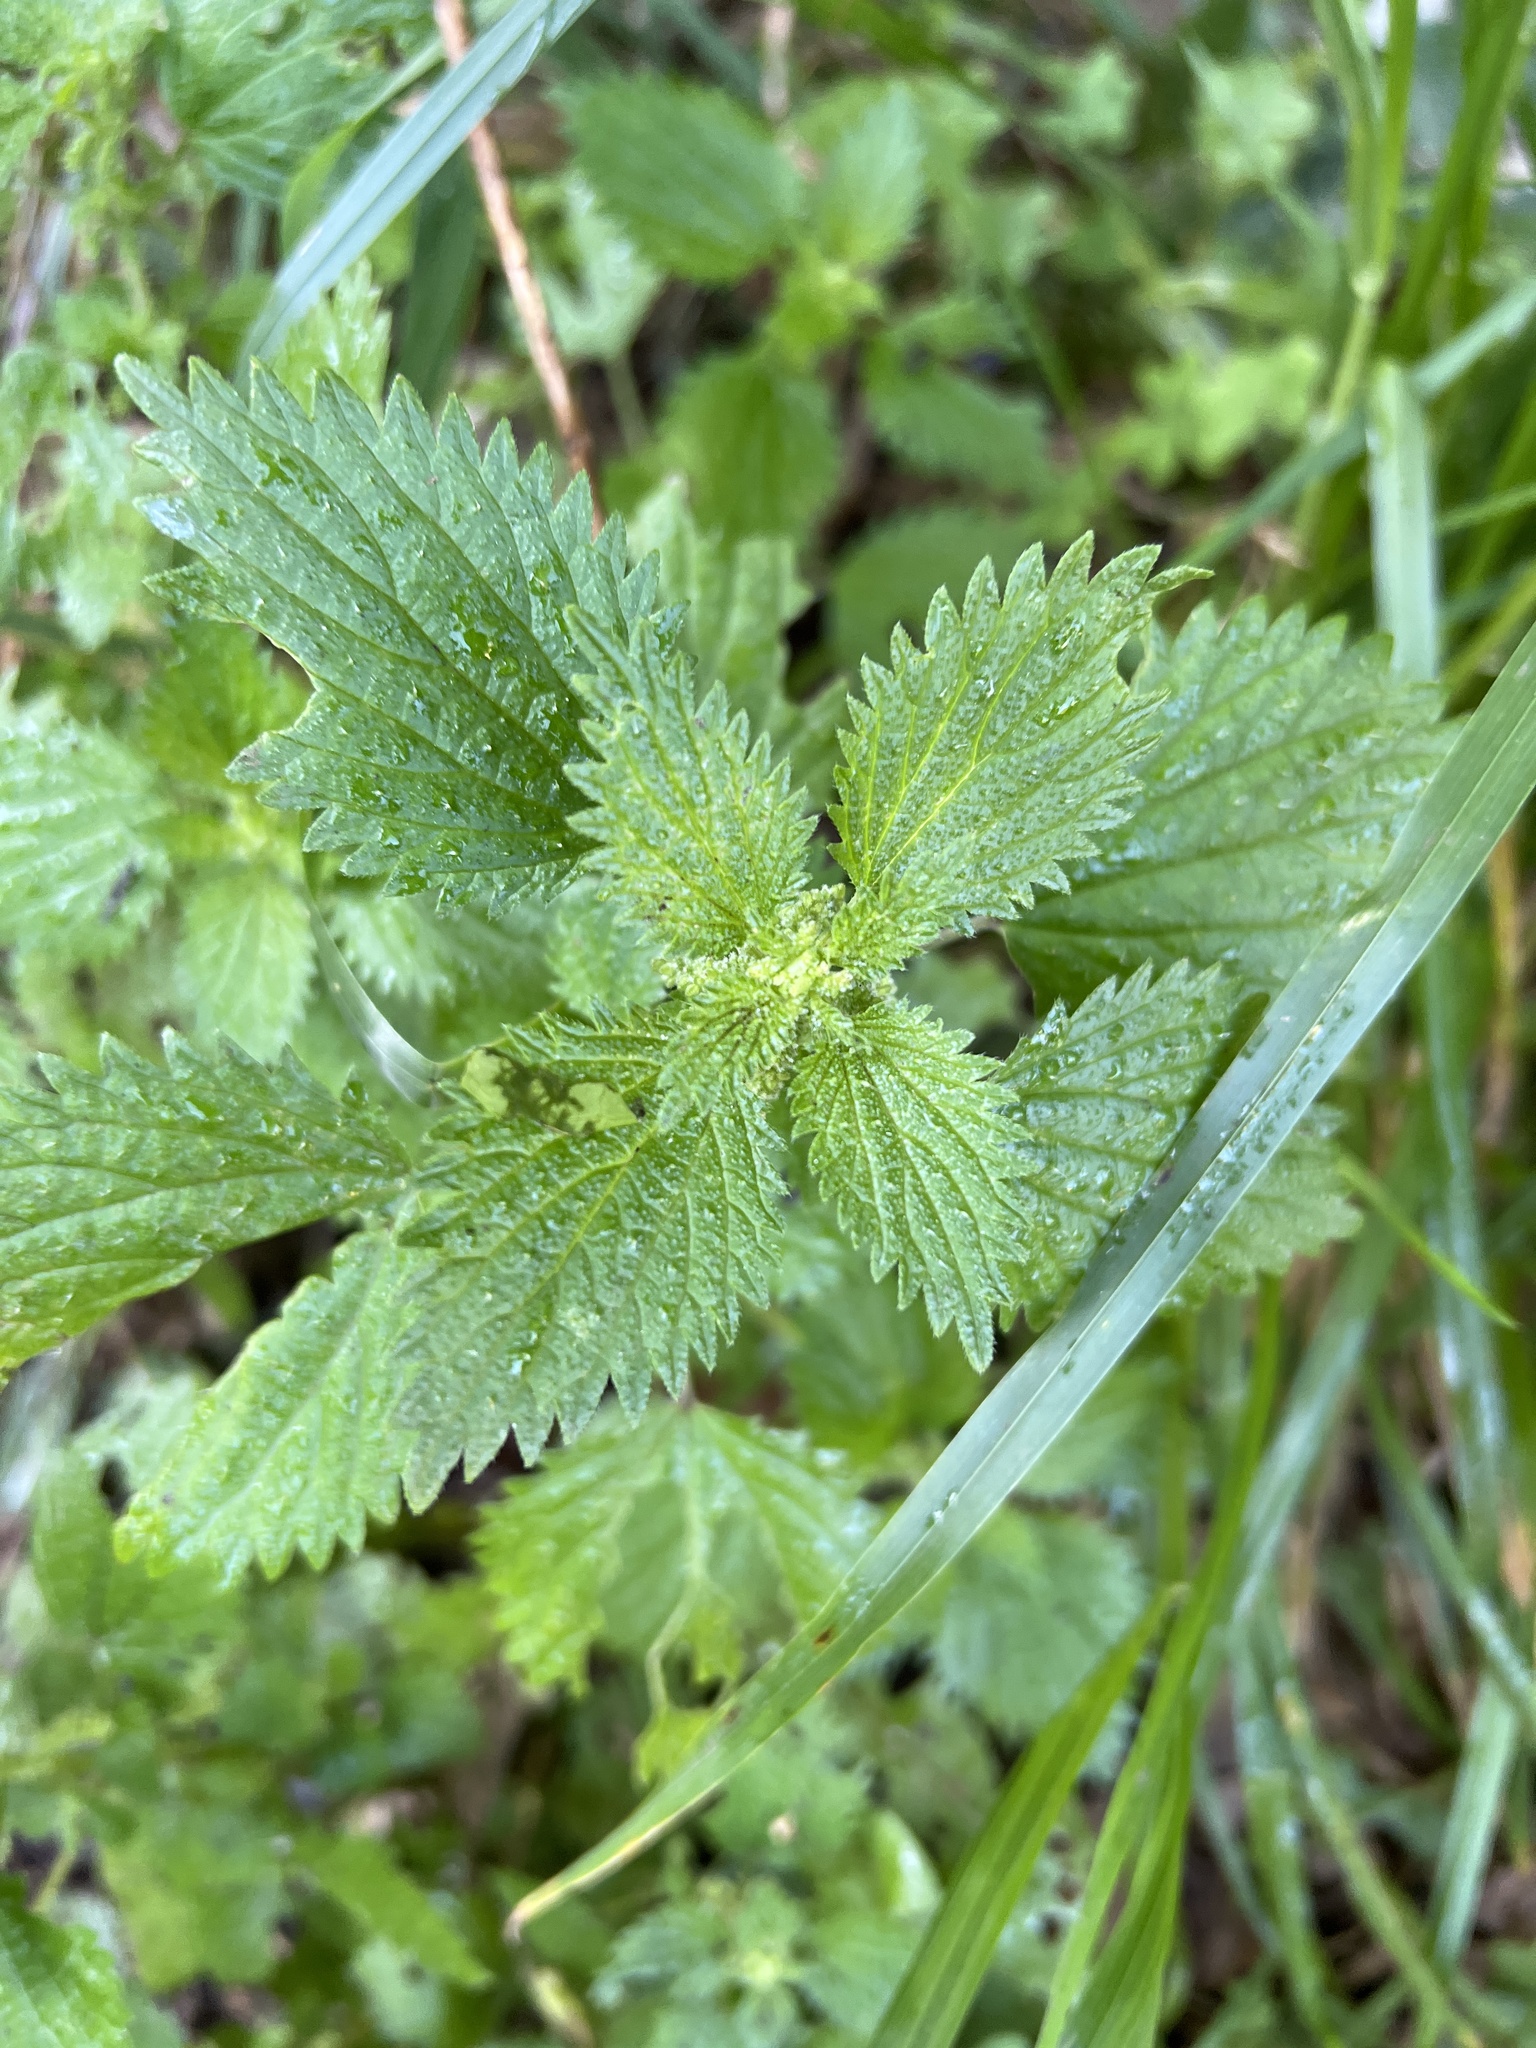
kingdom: Plantae
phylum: Tracheophyta
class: Magnoliopsida
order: Rosales
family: Urticaceae
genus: Urtica
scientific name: Urtica membranacea
